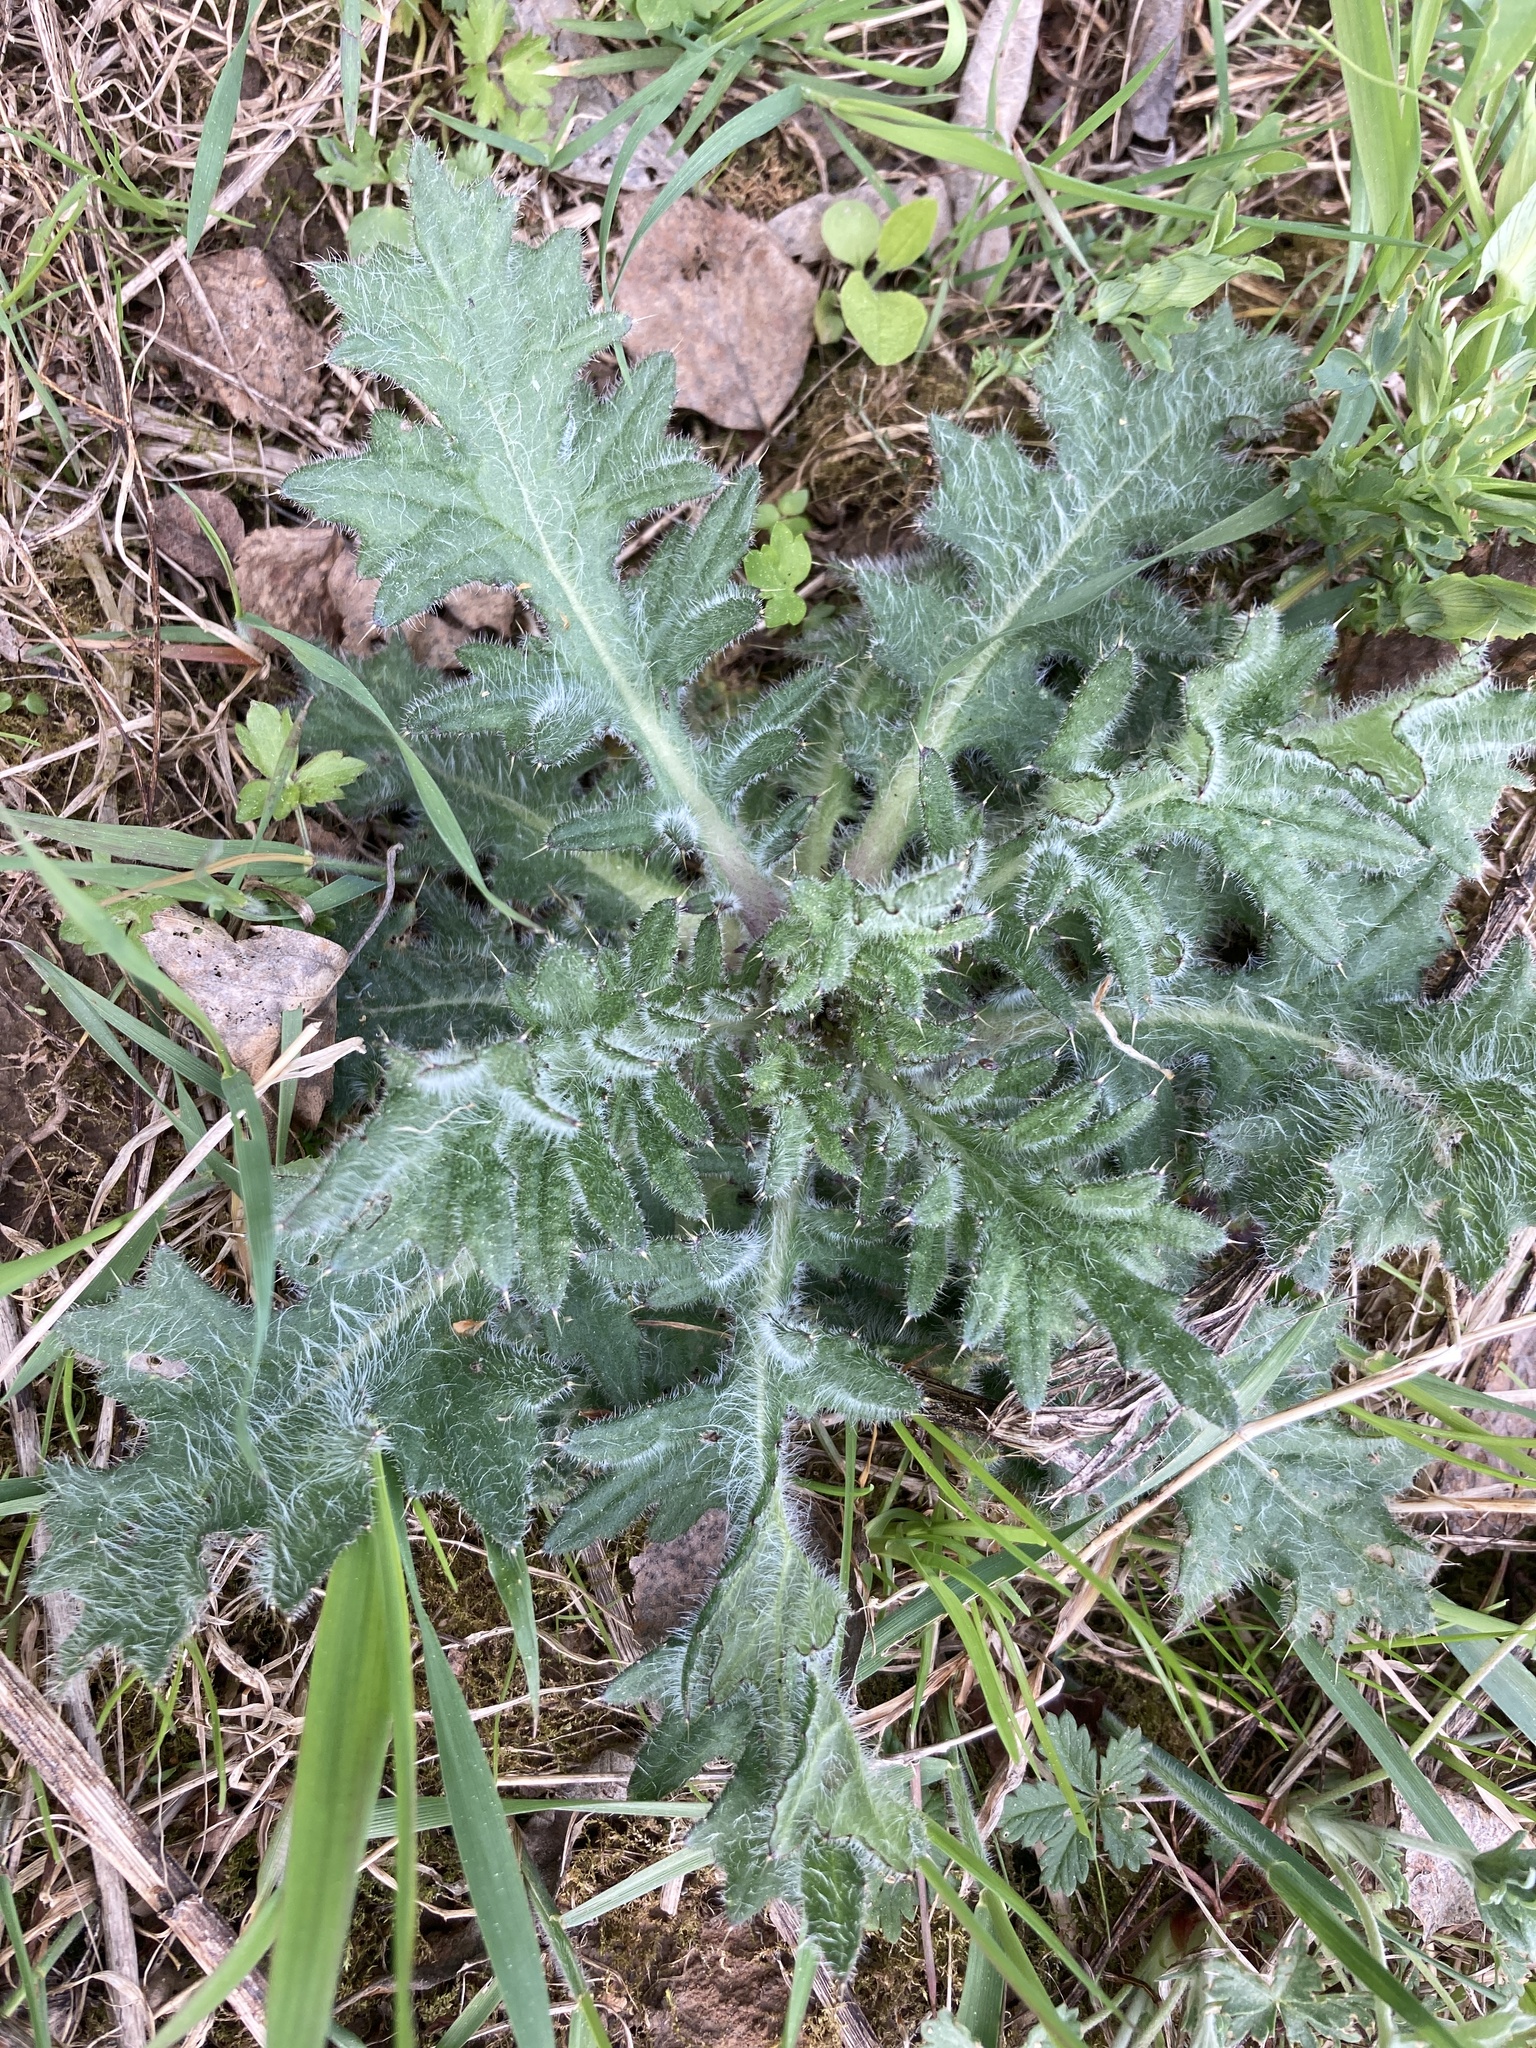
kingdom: Plantae
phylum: Tracheophyta
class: Magnoliopsida
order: Asterales
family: Asteraceae
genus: Cirsium
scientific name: Cirsium vulgare
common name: Bull thistle
